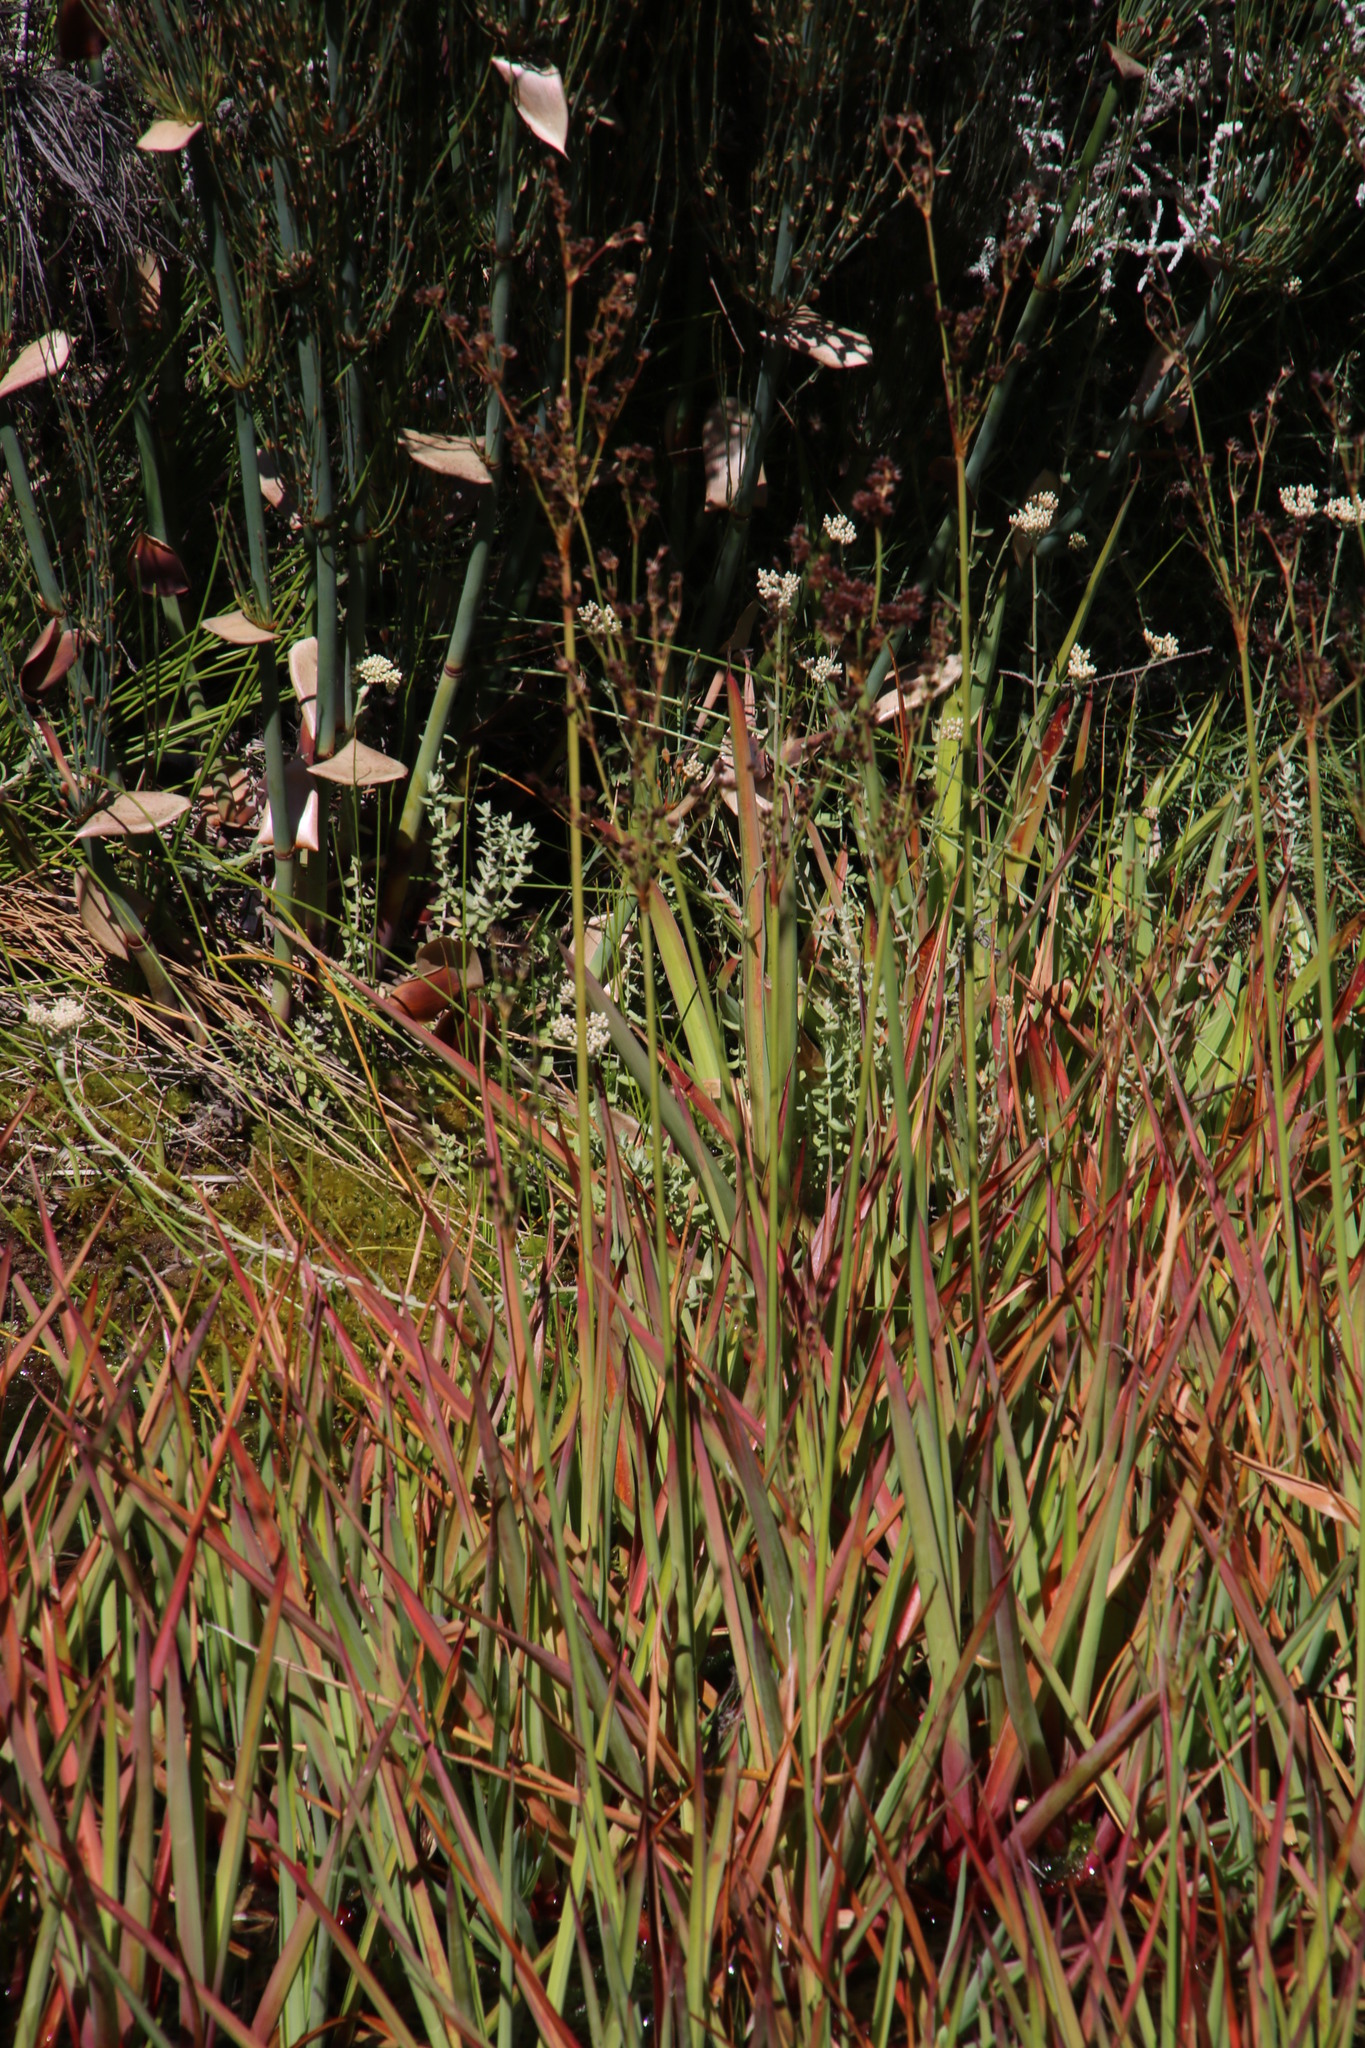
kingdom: Plantae
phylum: Tracheophyta
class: Liliopsida
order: Poales
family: Juncaceae
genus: Juncus
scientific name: Juncus lomatophyllus
